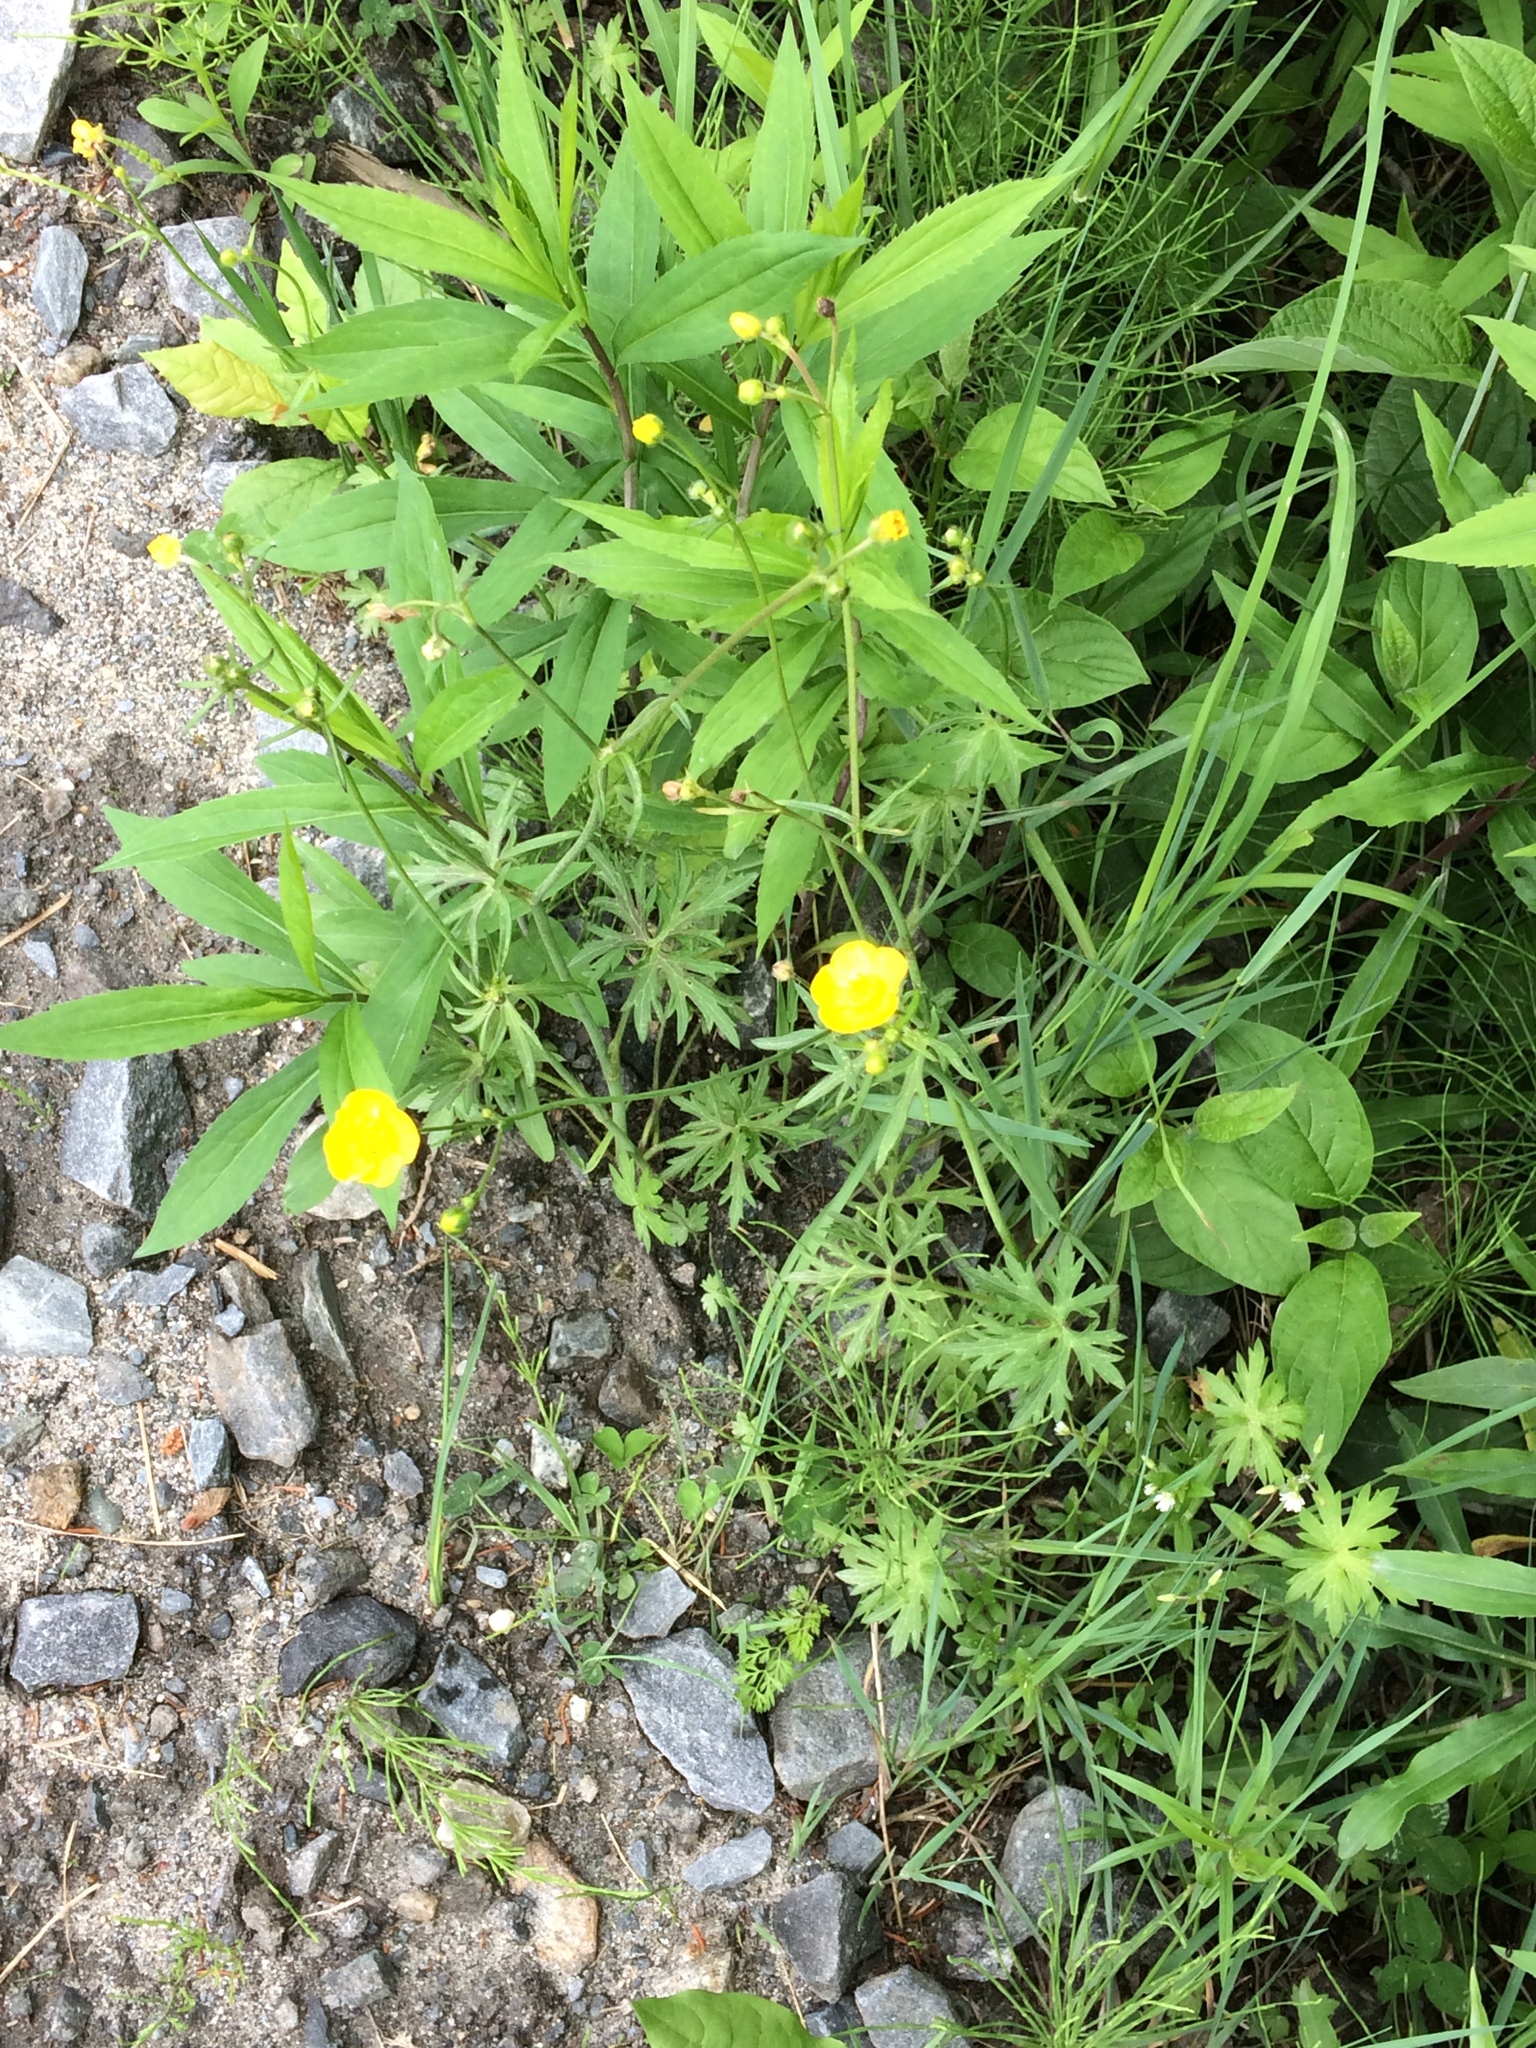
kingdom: Plantae
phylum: Tracheophyta
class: Magnoliopsida
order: Ranunculales
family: Ranunculaceae
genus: Ranunculus
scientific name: Ranunculus acris
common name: Meadow buttercup
